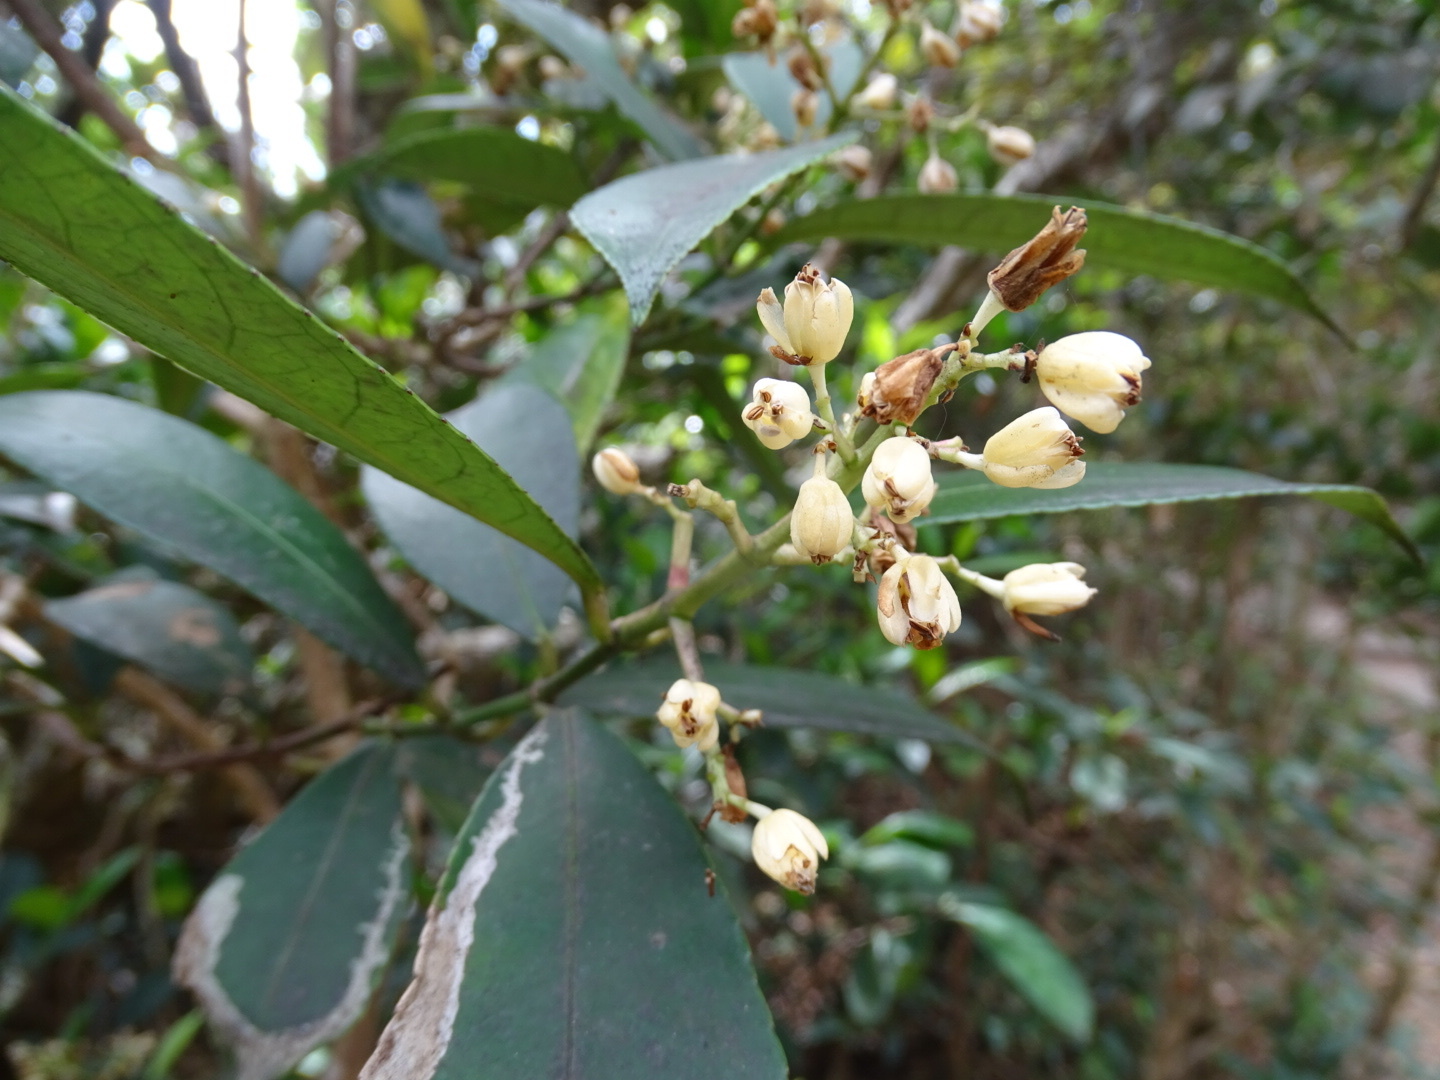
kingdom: Plantae
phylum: Tracheophyta
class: Magnoliopsida
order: Crossosomatales
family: Staphyleaceae
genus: Turpinia
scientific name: Turpinia arguta
